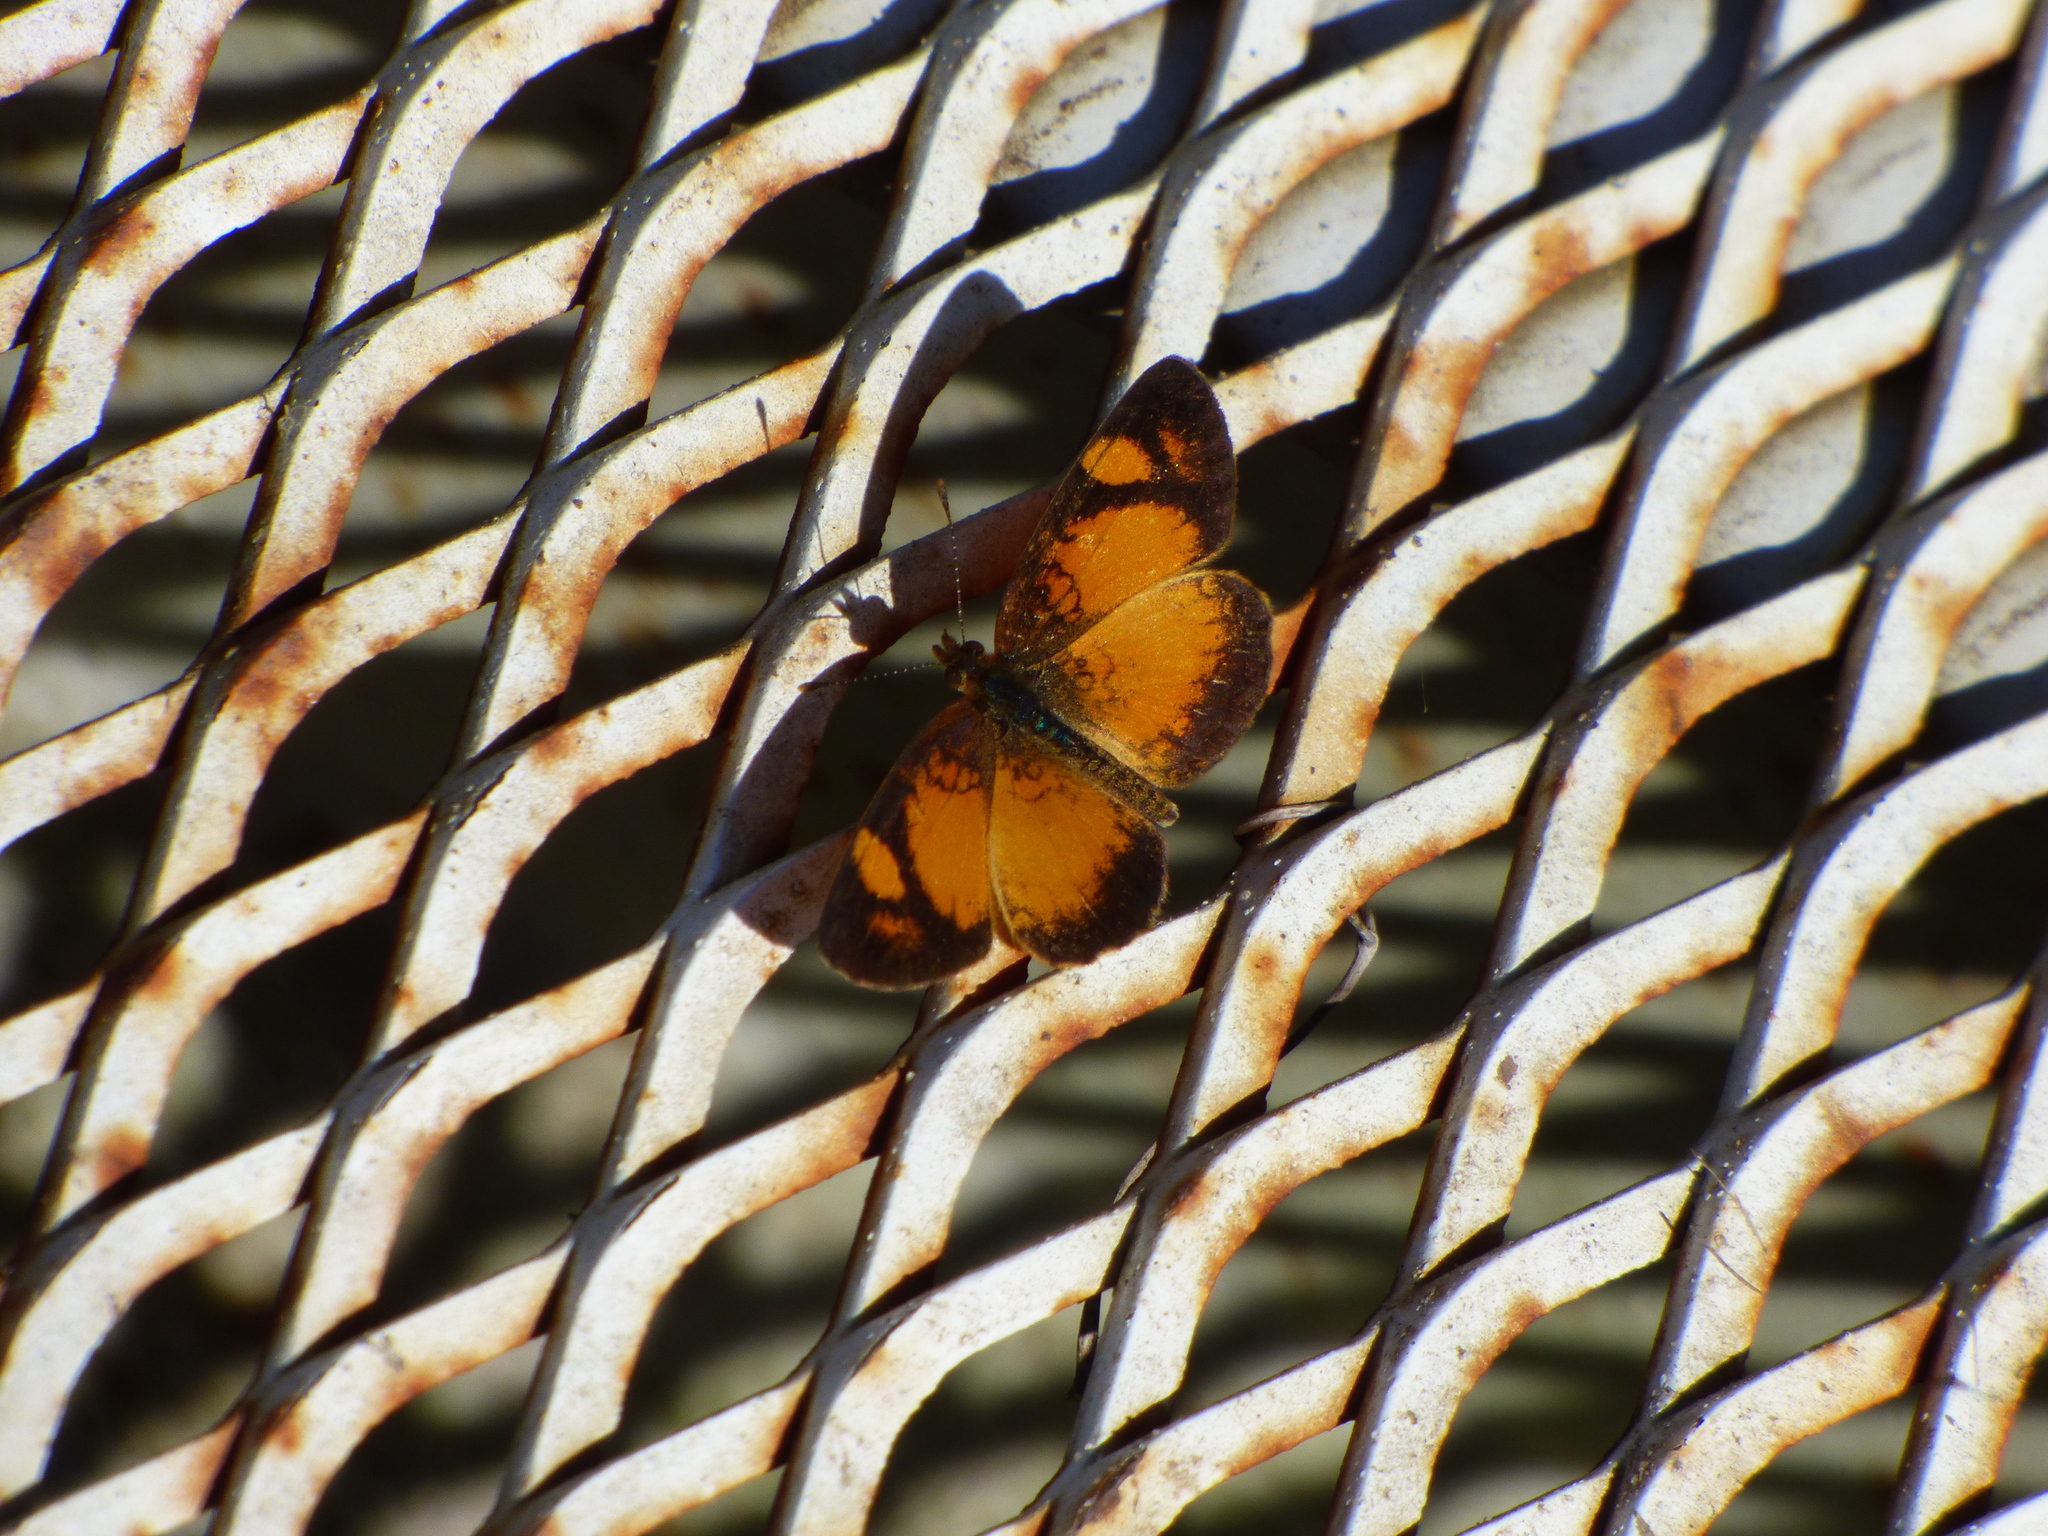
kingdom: Animalia
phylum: Arthropoda
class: Insecta
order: Lepidoptera
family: Nymphalidae
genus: Tegosa
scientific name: Tegosa claudina
